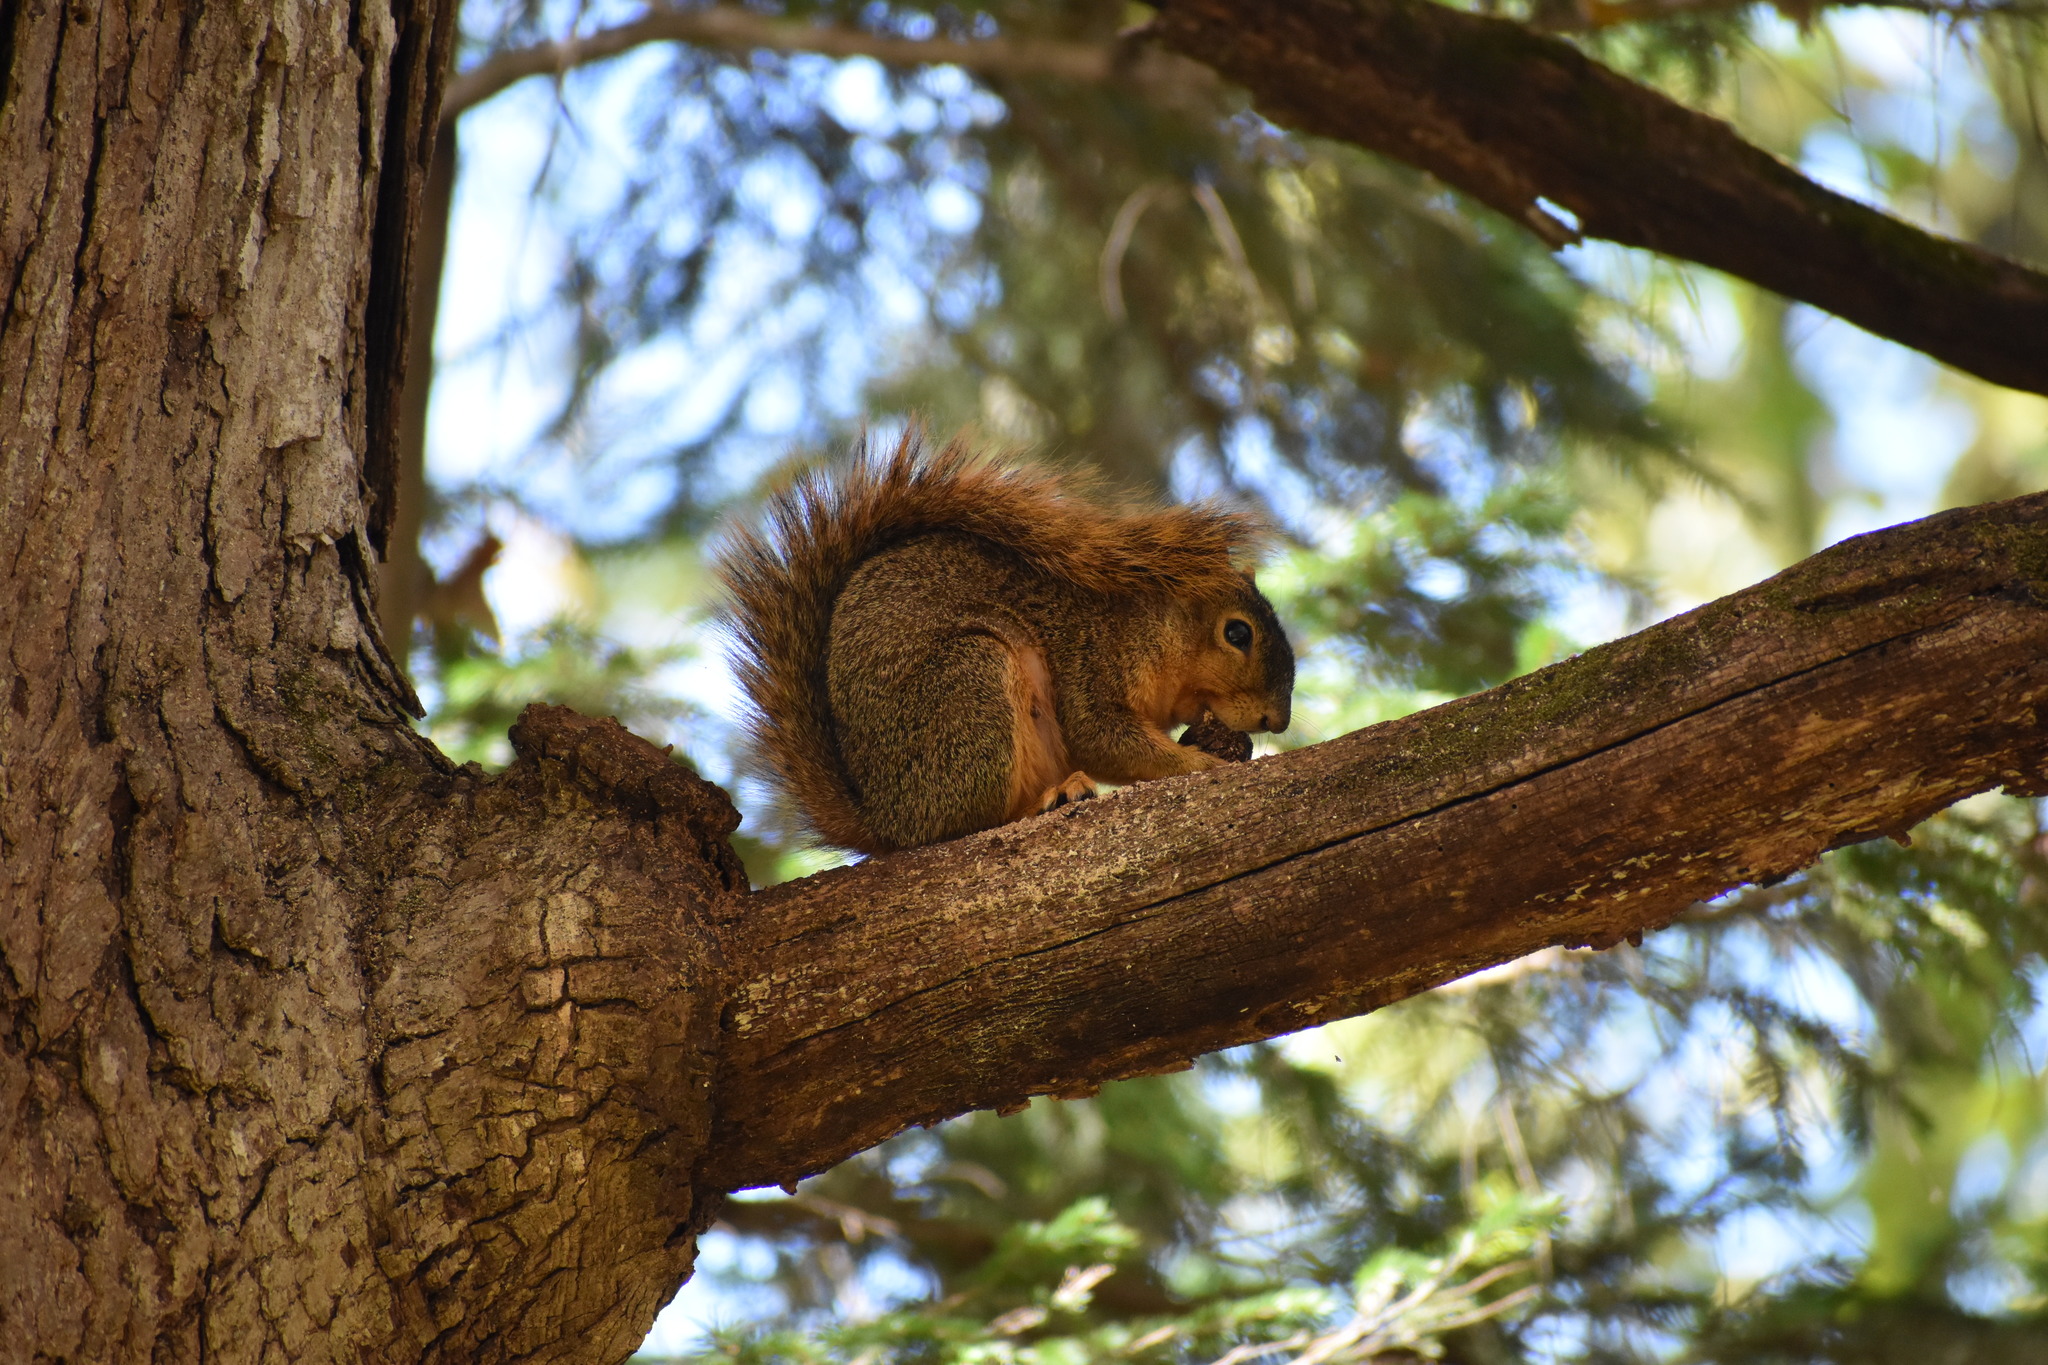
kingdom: Animalia
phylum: Chordata
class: Mammalia
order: Rodentia
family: Sciuridae
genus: Sciurus
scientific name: Sciurus niger
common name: Fox squirrel
